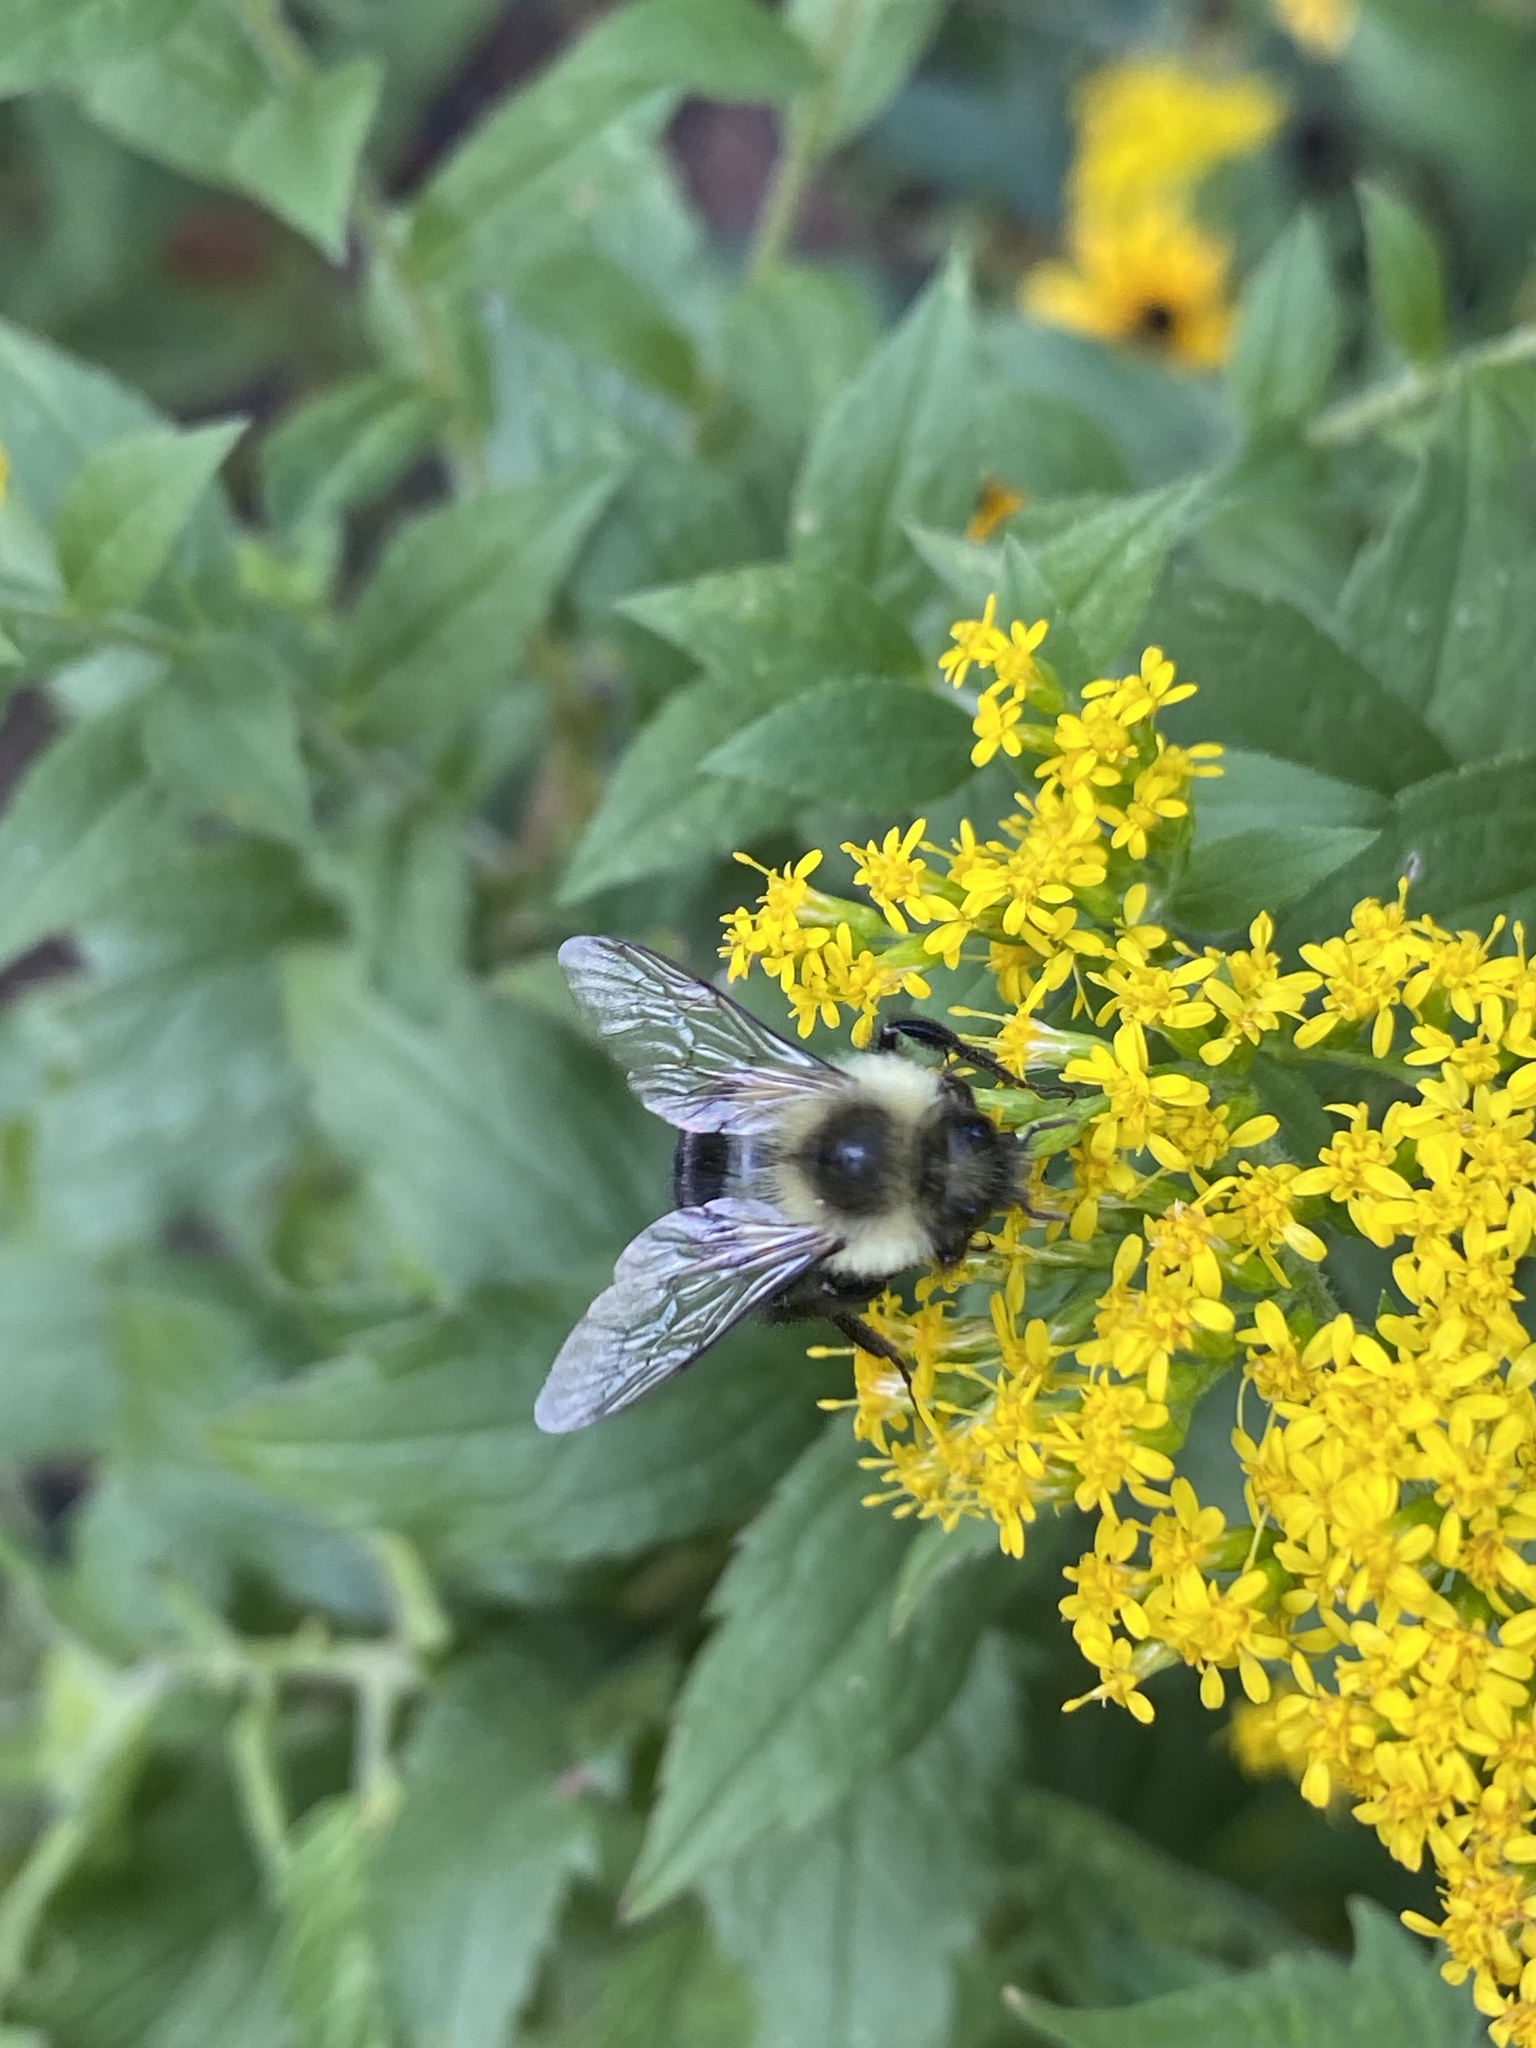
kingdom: Animalia
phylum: Arthropoda
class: Insecta
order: Hymenoptera
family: Apidae
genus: Bombus
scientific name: Bombus impatiens
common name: Common eastern bumble bee
